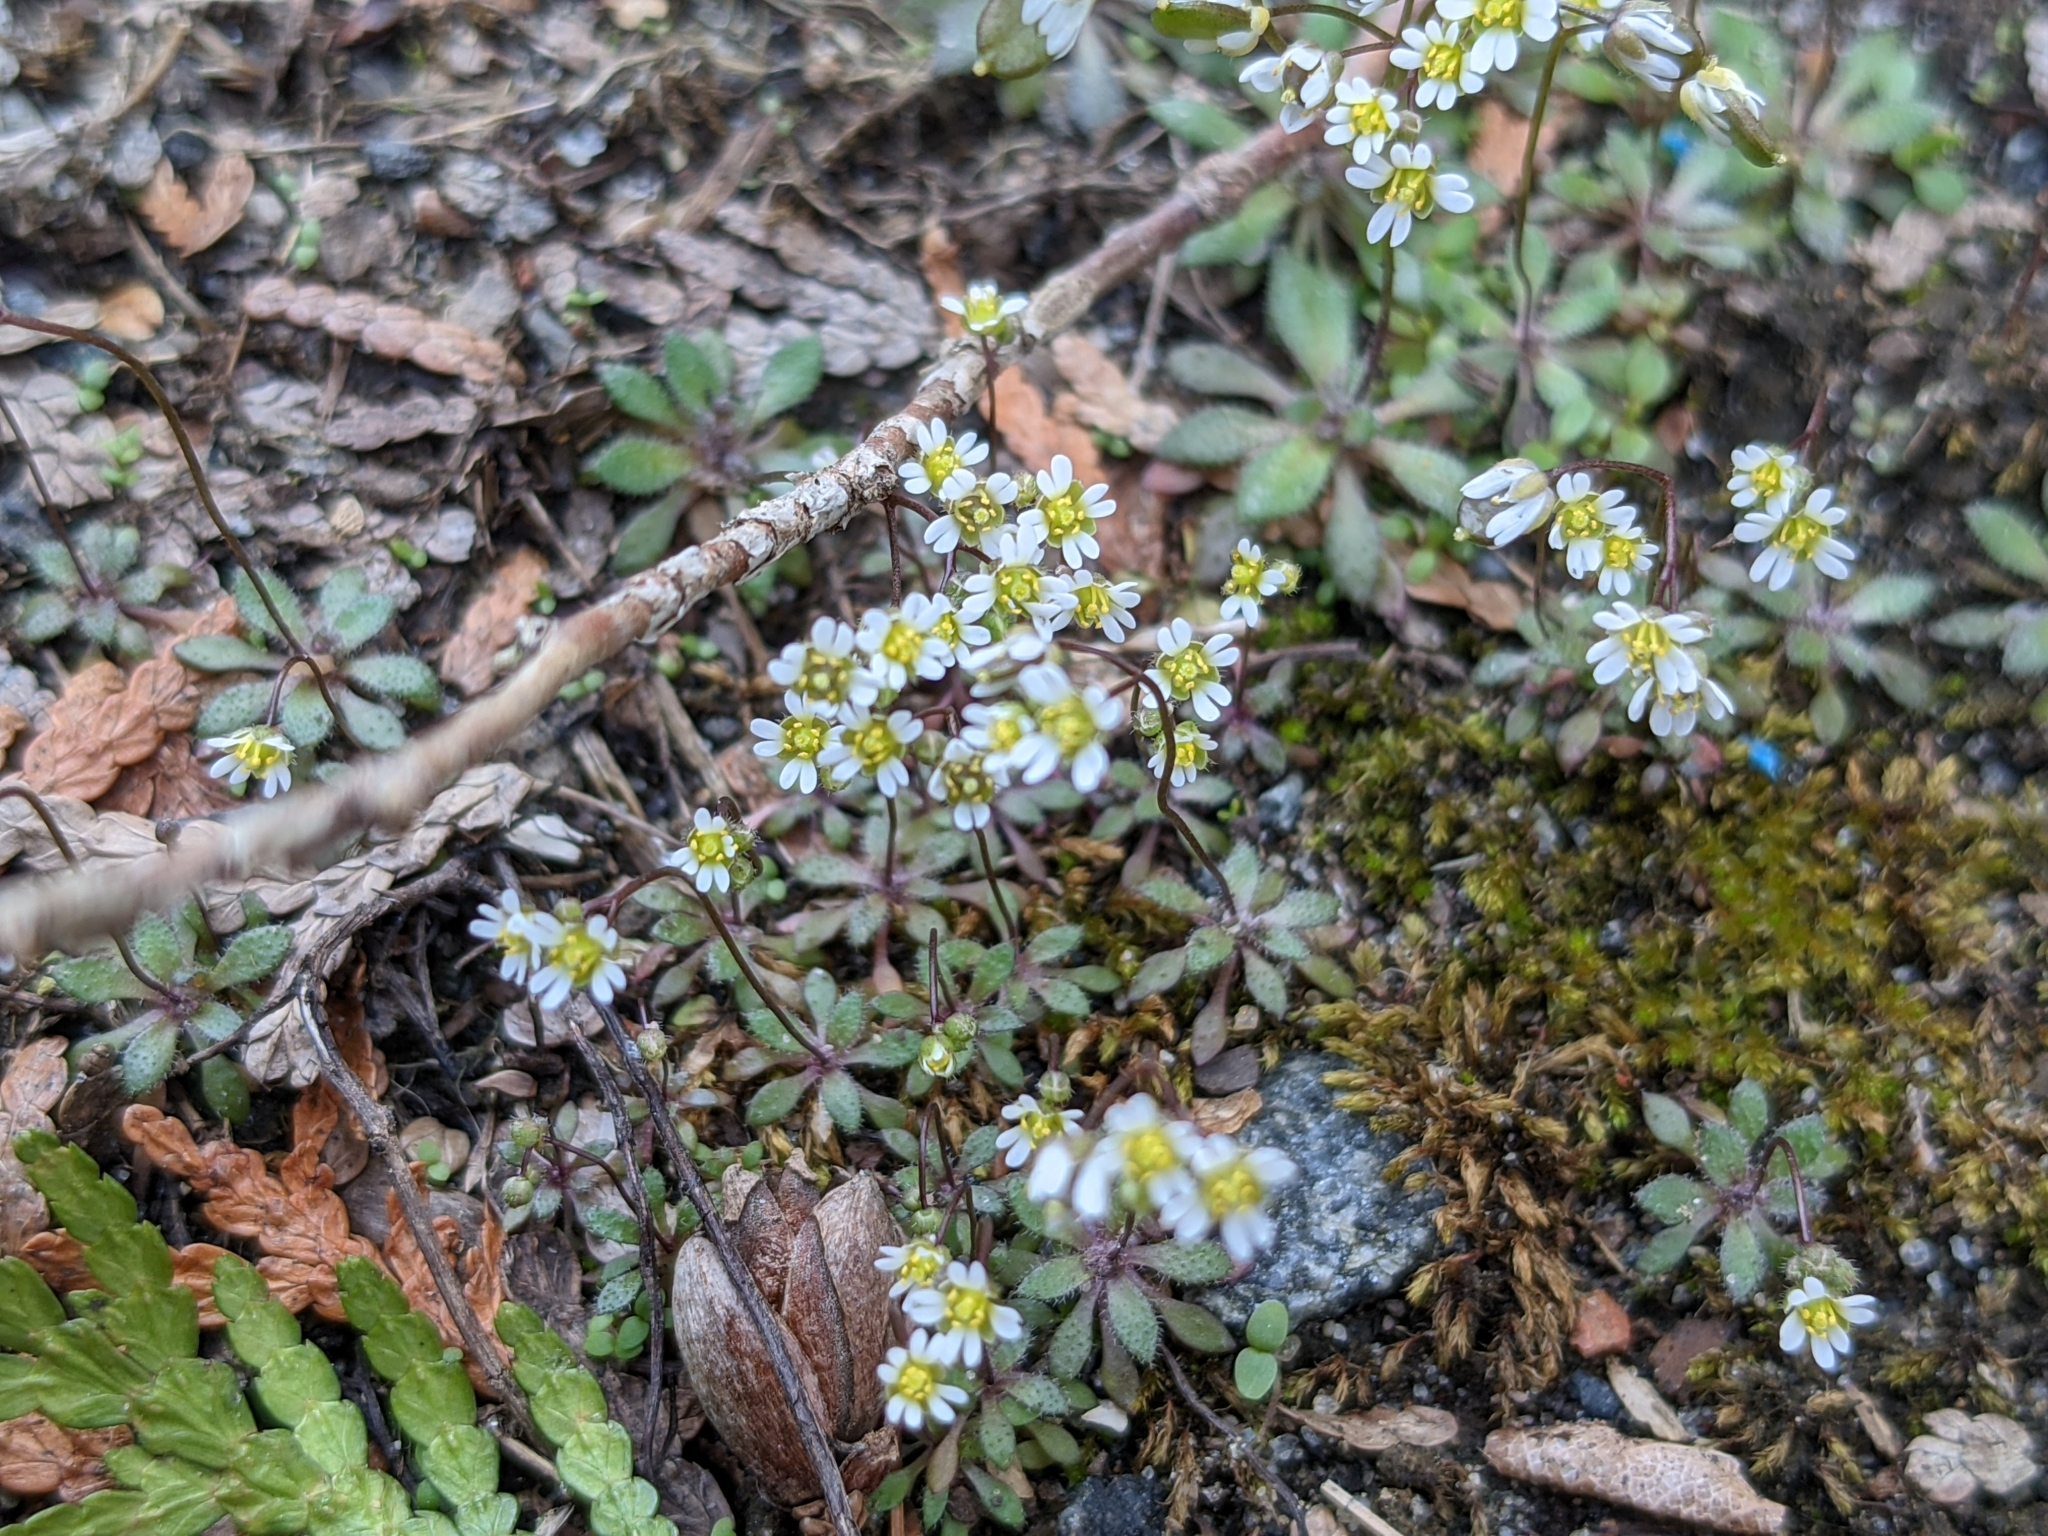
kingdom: Plantae
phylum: Tracheophyta
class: Magnoliopsida
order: Brassicales
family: Brassicaceae
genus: Draba
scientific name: Draba verna
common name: Spring draba
